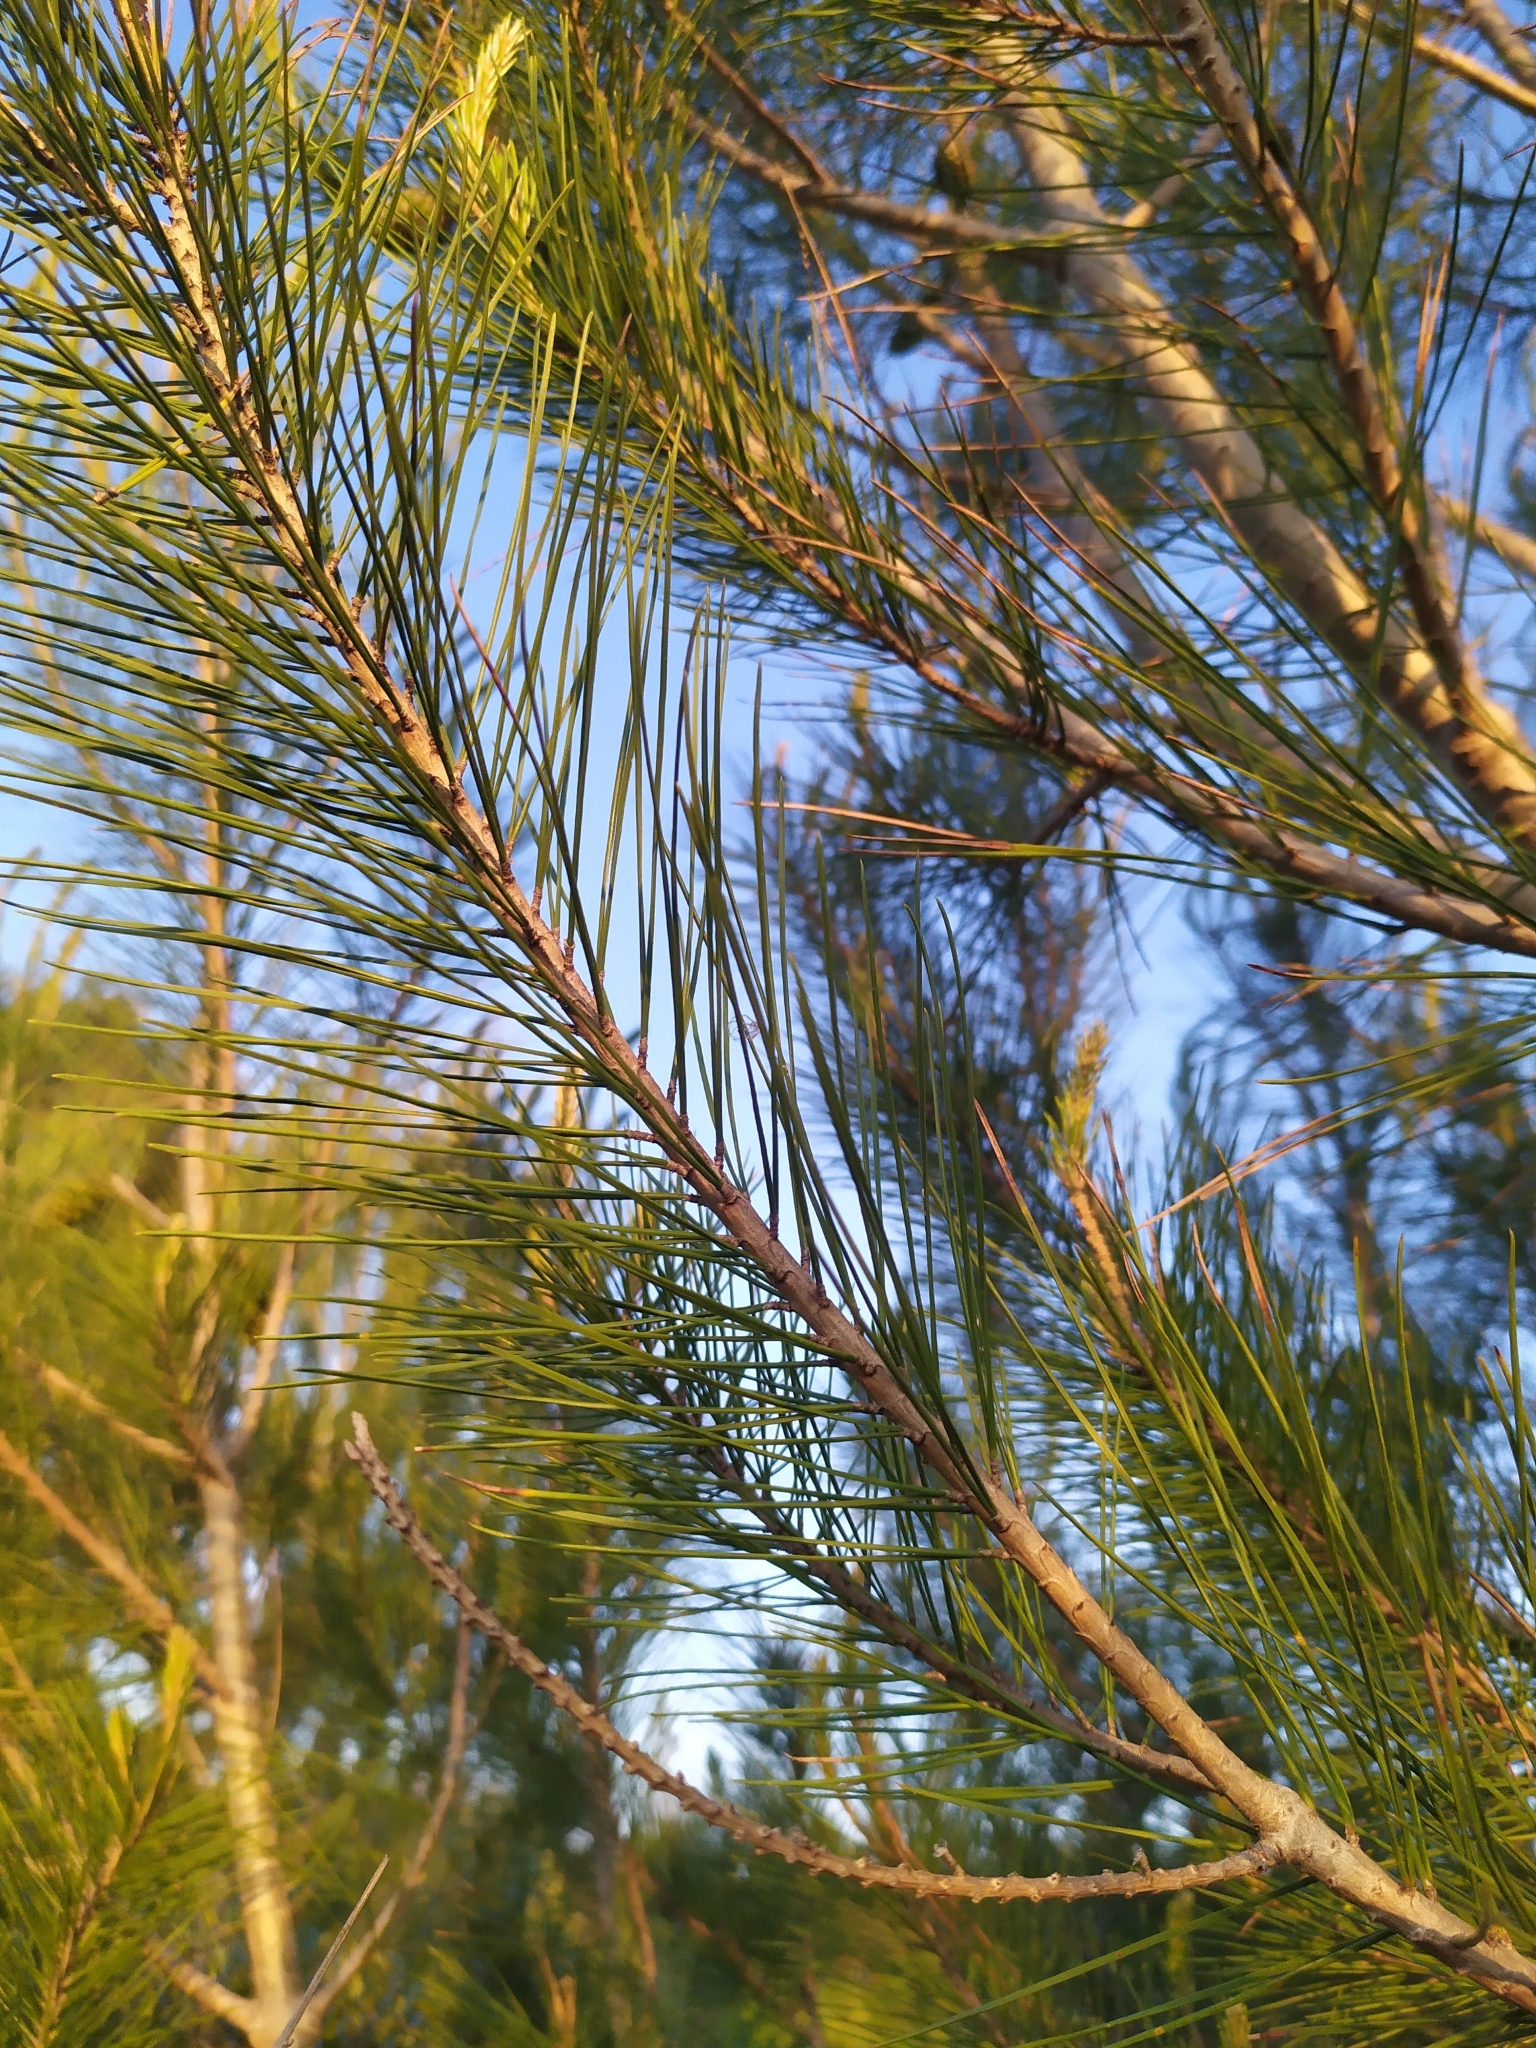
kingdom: Plantae
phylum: Tracheophyta
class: Pinopsida
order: Pinales
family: Pinaceae
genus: Pinus
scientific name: Pinus halepensis
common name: Aleppo pine
